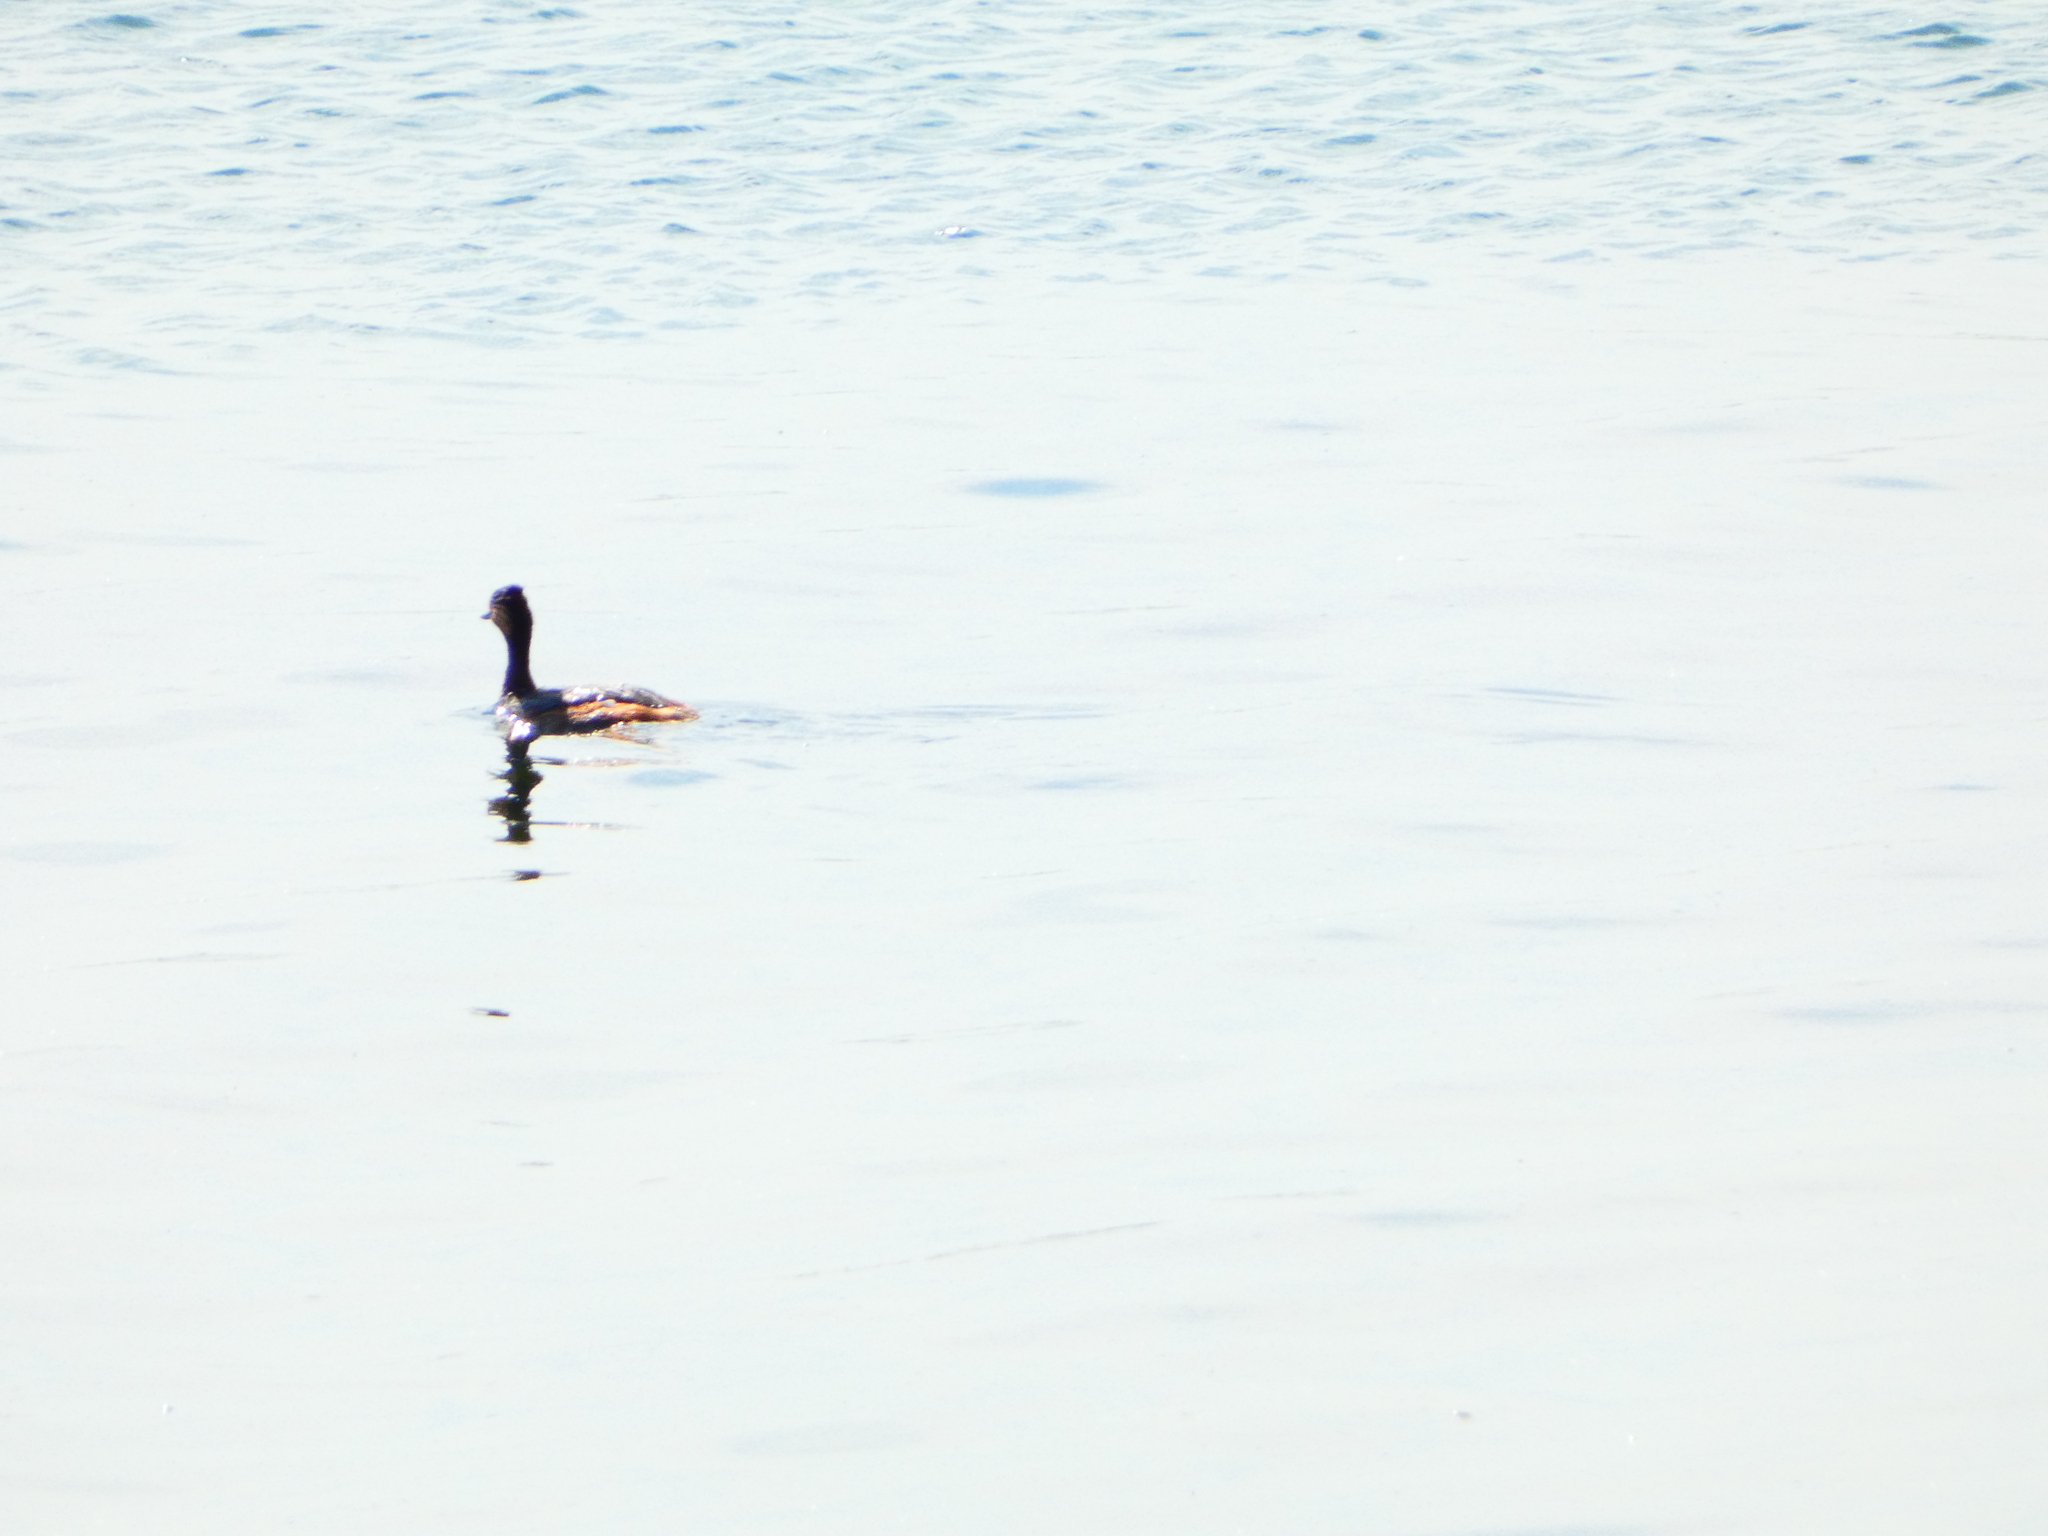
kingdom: Animalia
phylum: Chordata
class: Aves
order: Podicipediformes
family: Podicipedidae
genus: Podiceps
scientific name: Podiceps nigricollis
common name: Black-necked grebe
